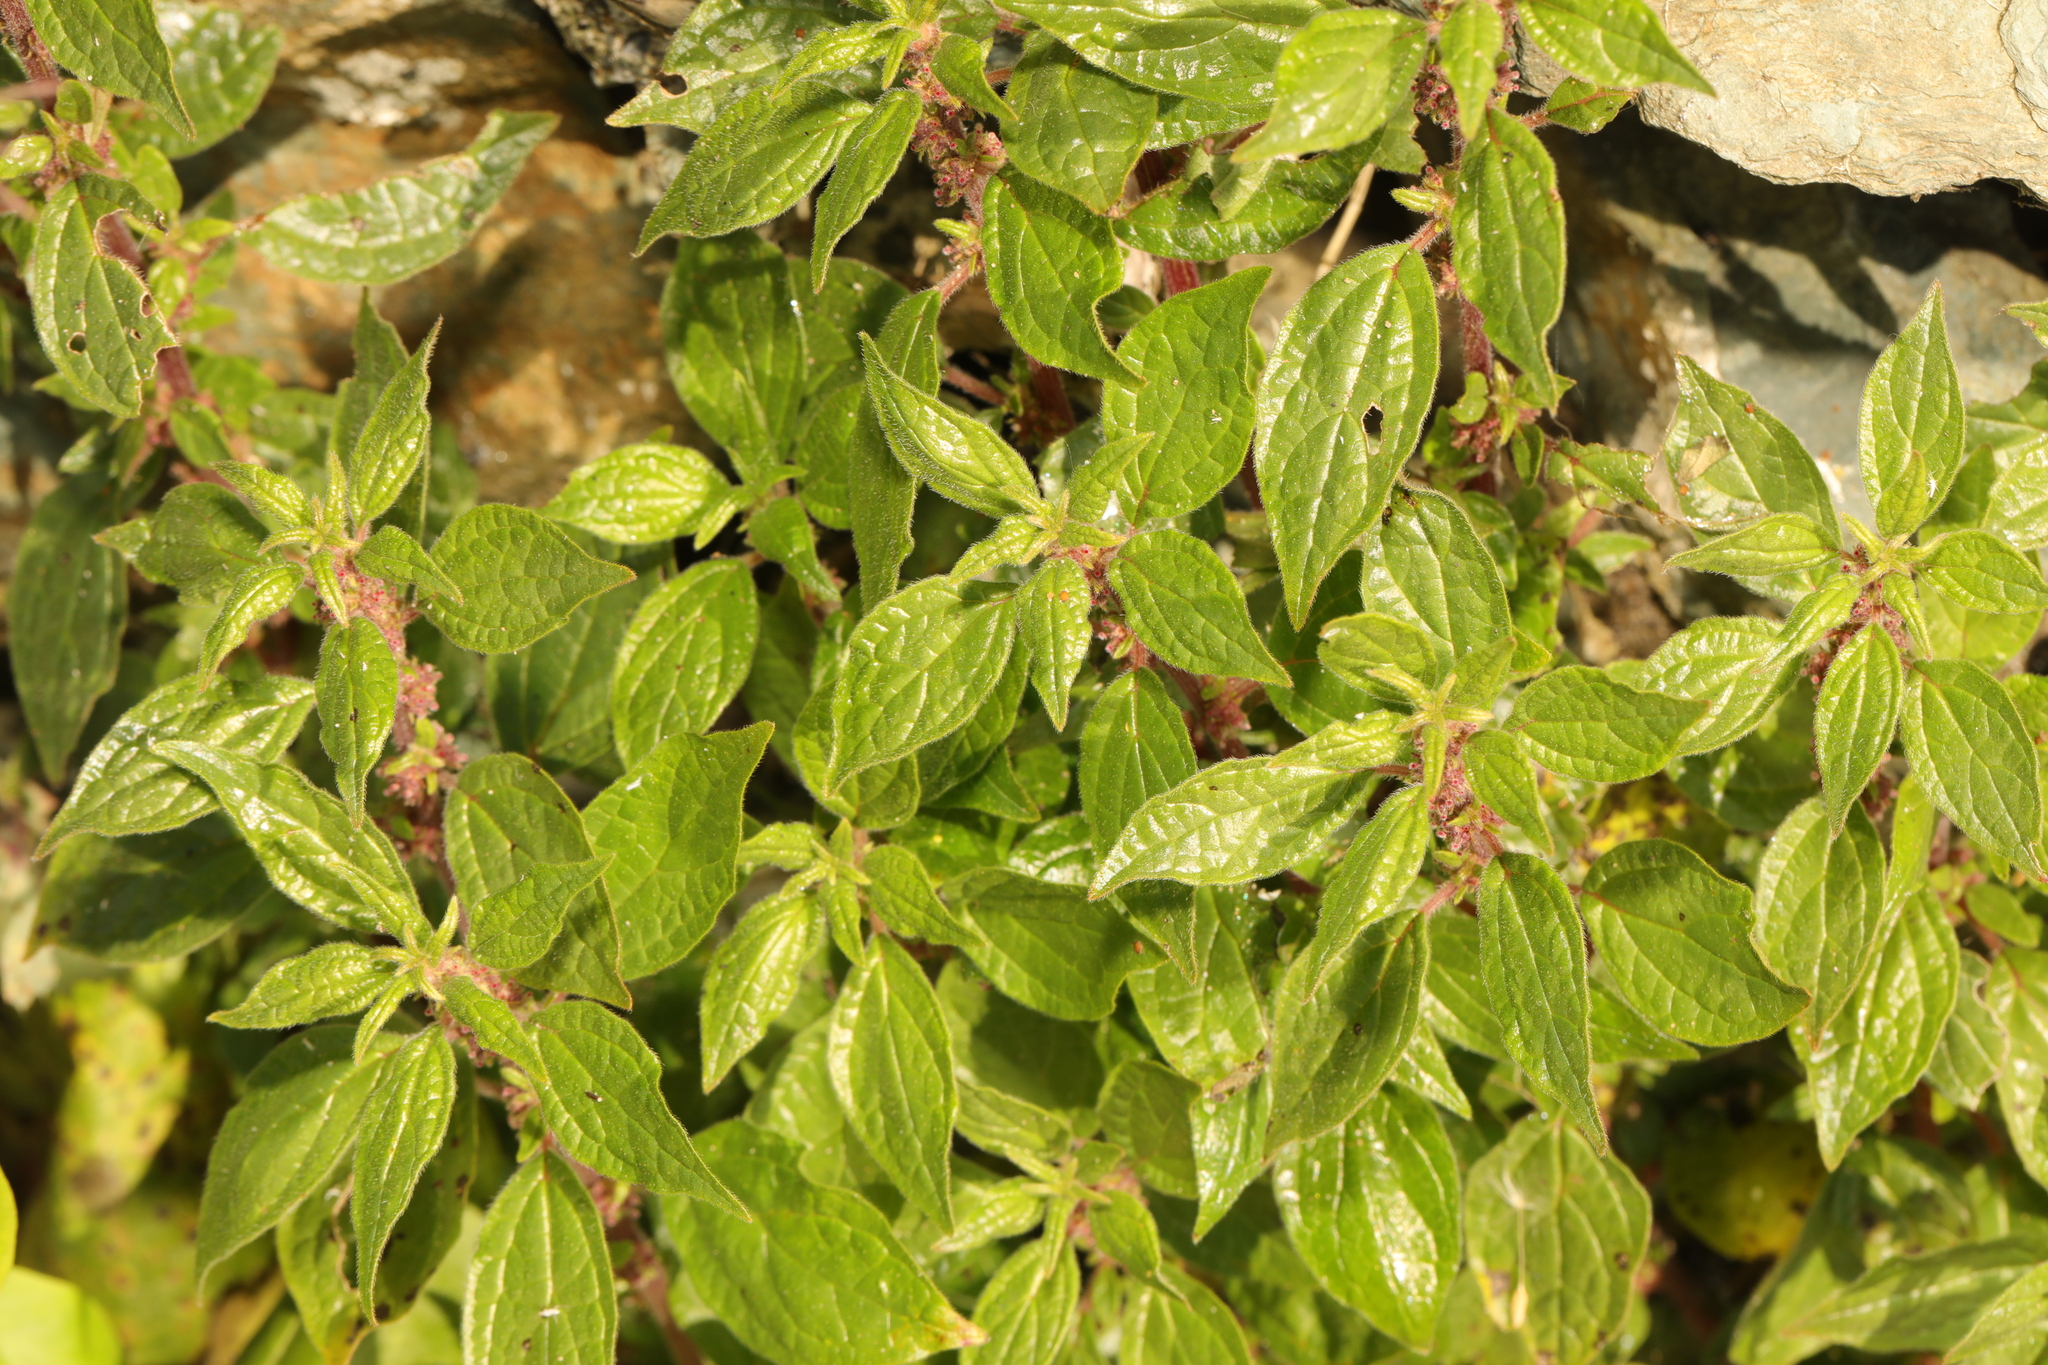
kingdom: Plantae
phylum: Tracheophyta
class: Magnoliopsida
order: Rosales
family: Urticaceae
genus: Parietaria
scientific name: Parietaria judaica
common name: Pellitory-of-the-wall
